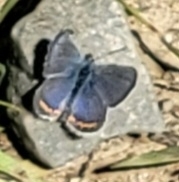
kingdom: Animalia
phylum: Arthropoda
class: Insecta
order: Lepidoptera
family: Lycaenidae
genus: Icaricia
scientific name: Icaricia acmon
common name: Acmon blue
